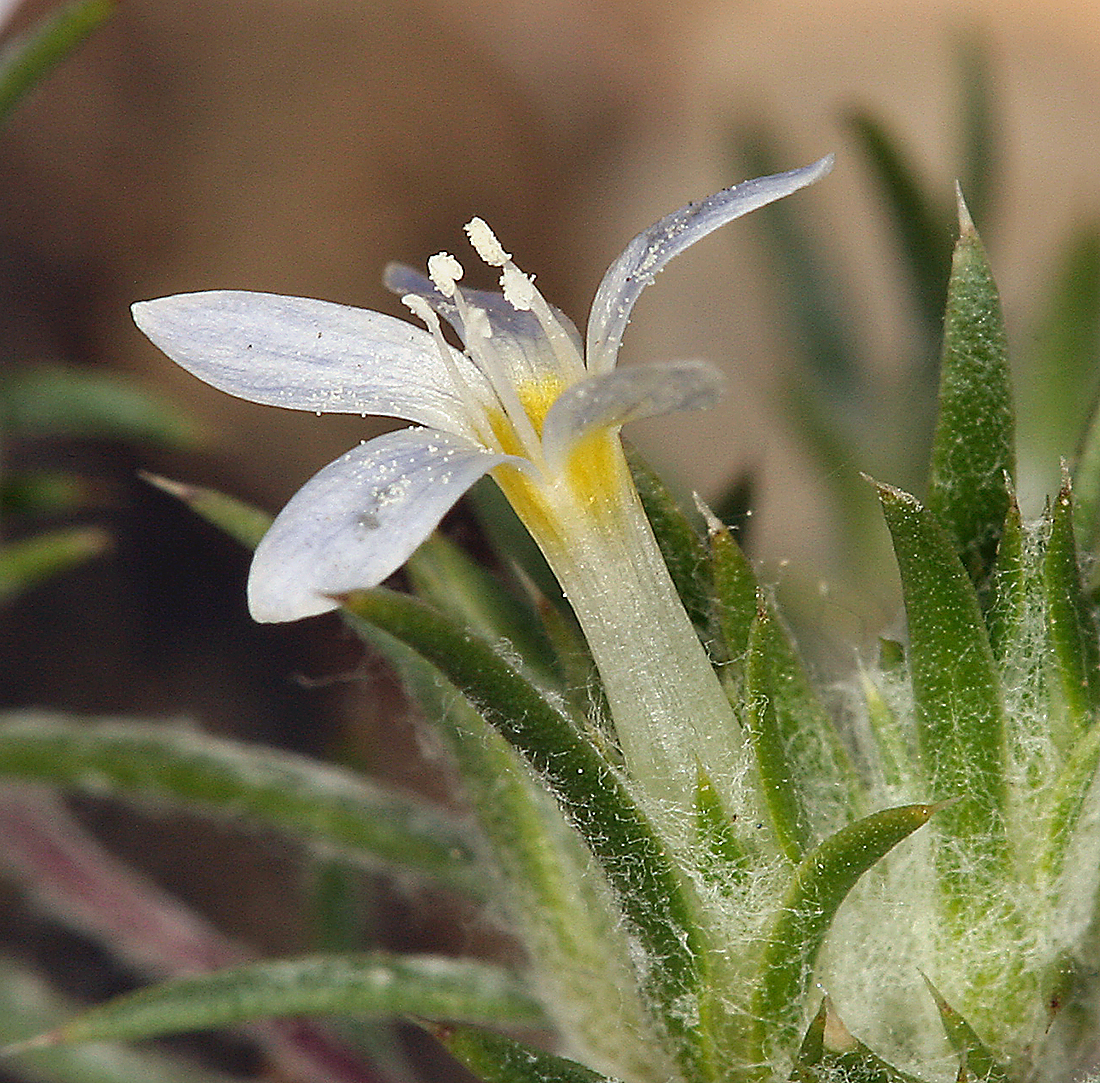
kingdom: Plantae
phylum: Tracheophyta
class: Magnoliopsida
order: Ericales
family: Polemoniaceae
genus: Eriastrum
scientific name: Eriastrum diffusum
